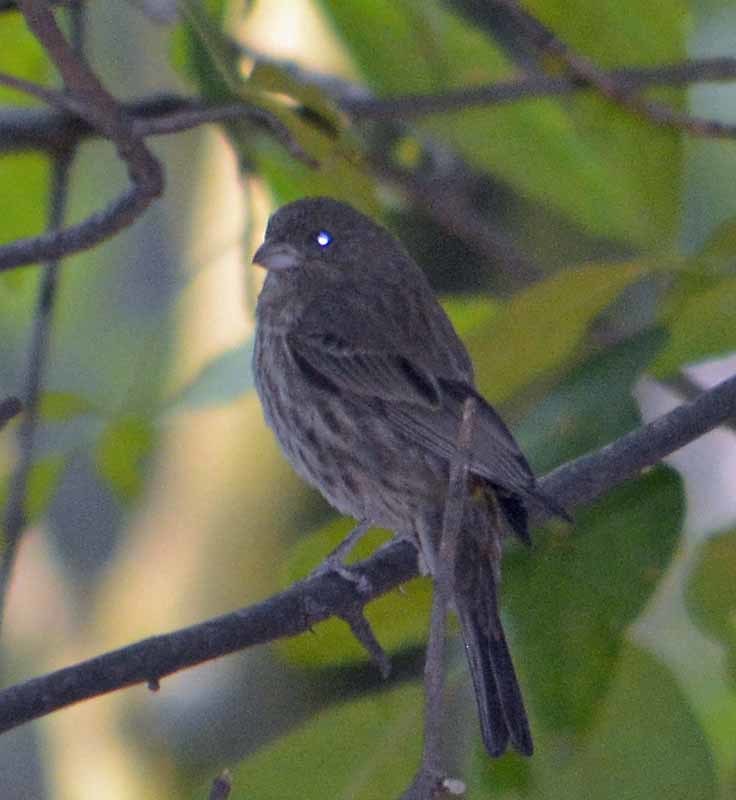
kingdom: Animalia
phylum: Chordata
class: Aves
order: Passeriformes
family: Fringillidae
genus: Haemorhous
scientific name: Haemorhous mexicanus
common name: House finch
